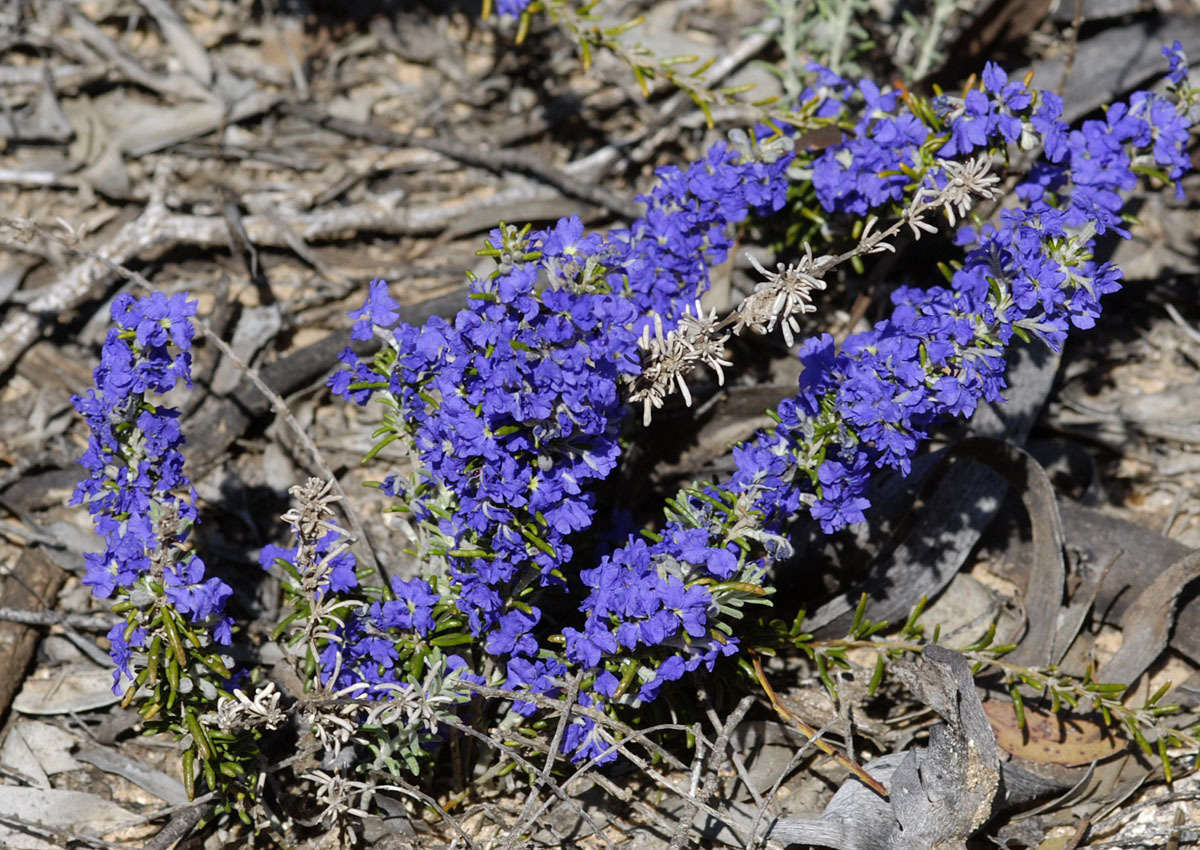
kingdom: Plantae
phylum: Tracheophyta
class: Magnoliopsida
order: Asterales
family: Goodeniaceae
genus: Dampiera
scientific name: Dampiera rosmarinifolia
